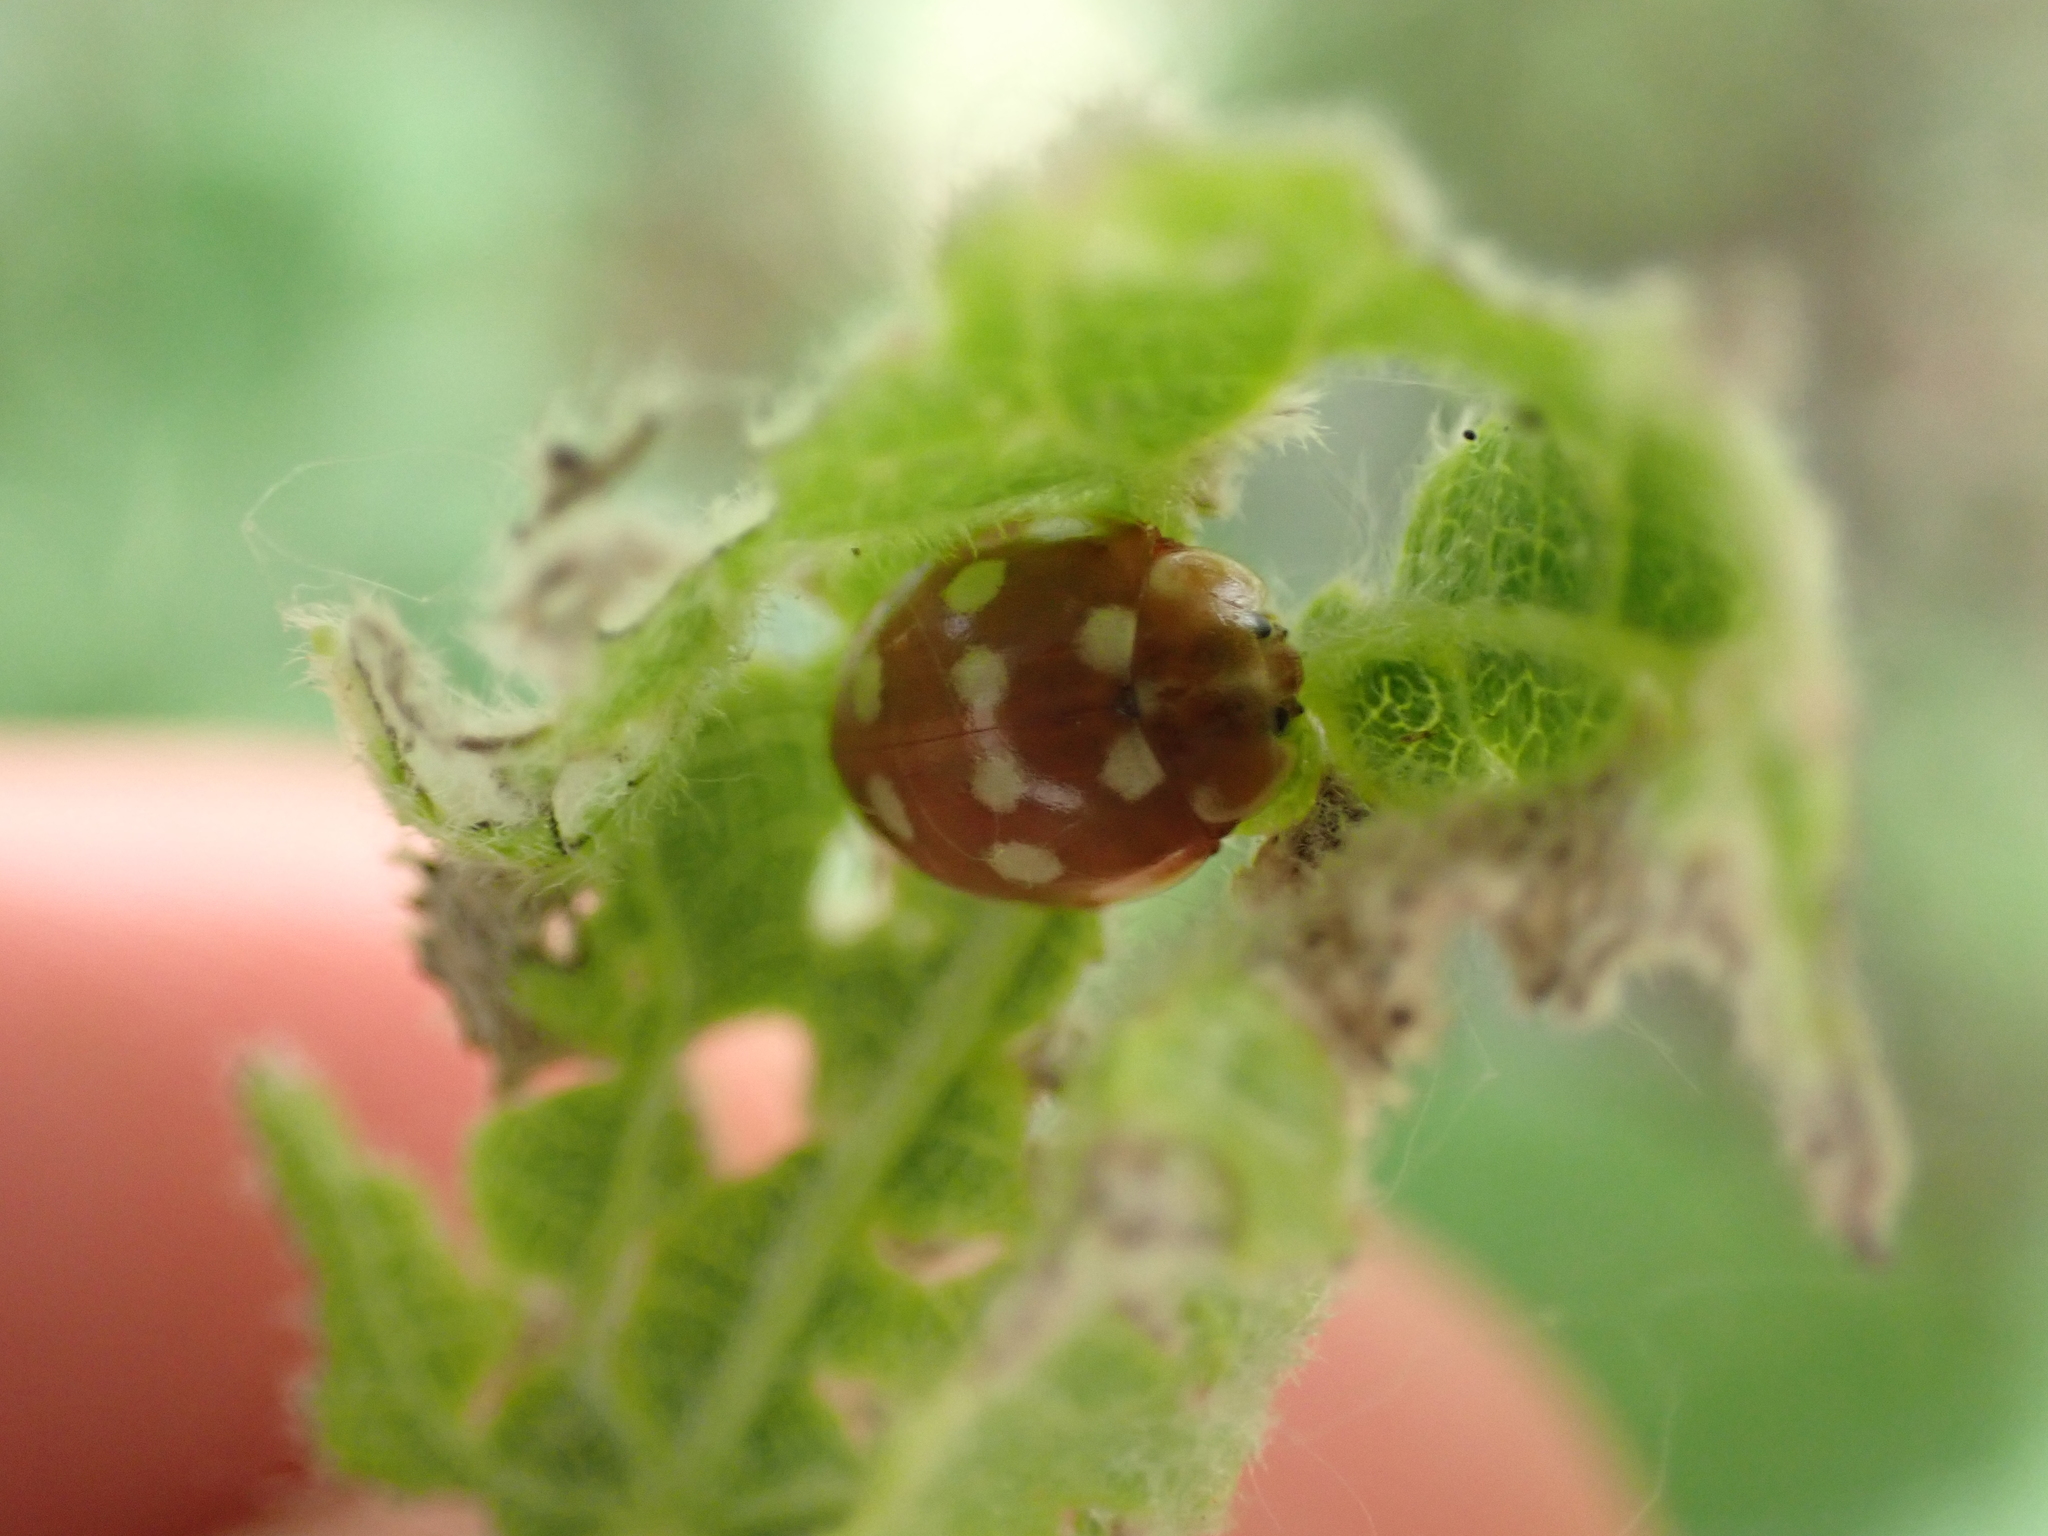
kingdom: Animalia
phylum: Arthropoda
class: Insecta
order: Coleoptera
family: Coccinellidae
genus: Calvia
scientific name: Calvia quatuordecimguttata
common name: Cream-spot ladybird
